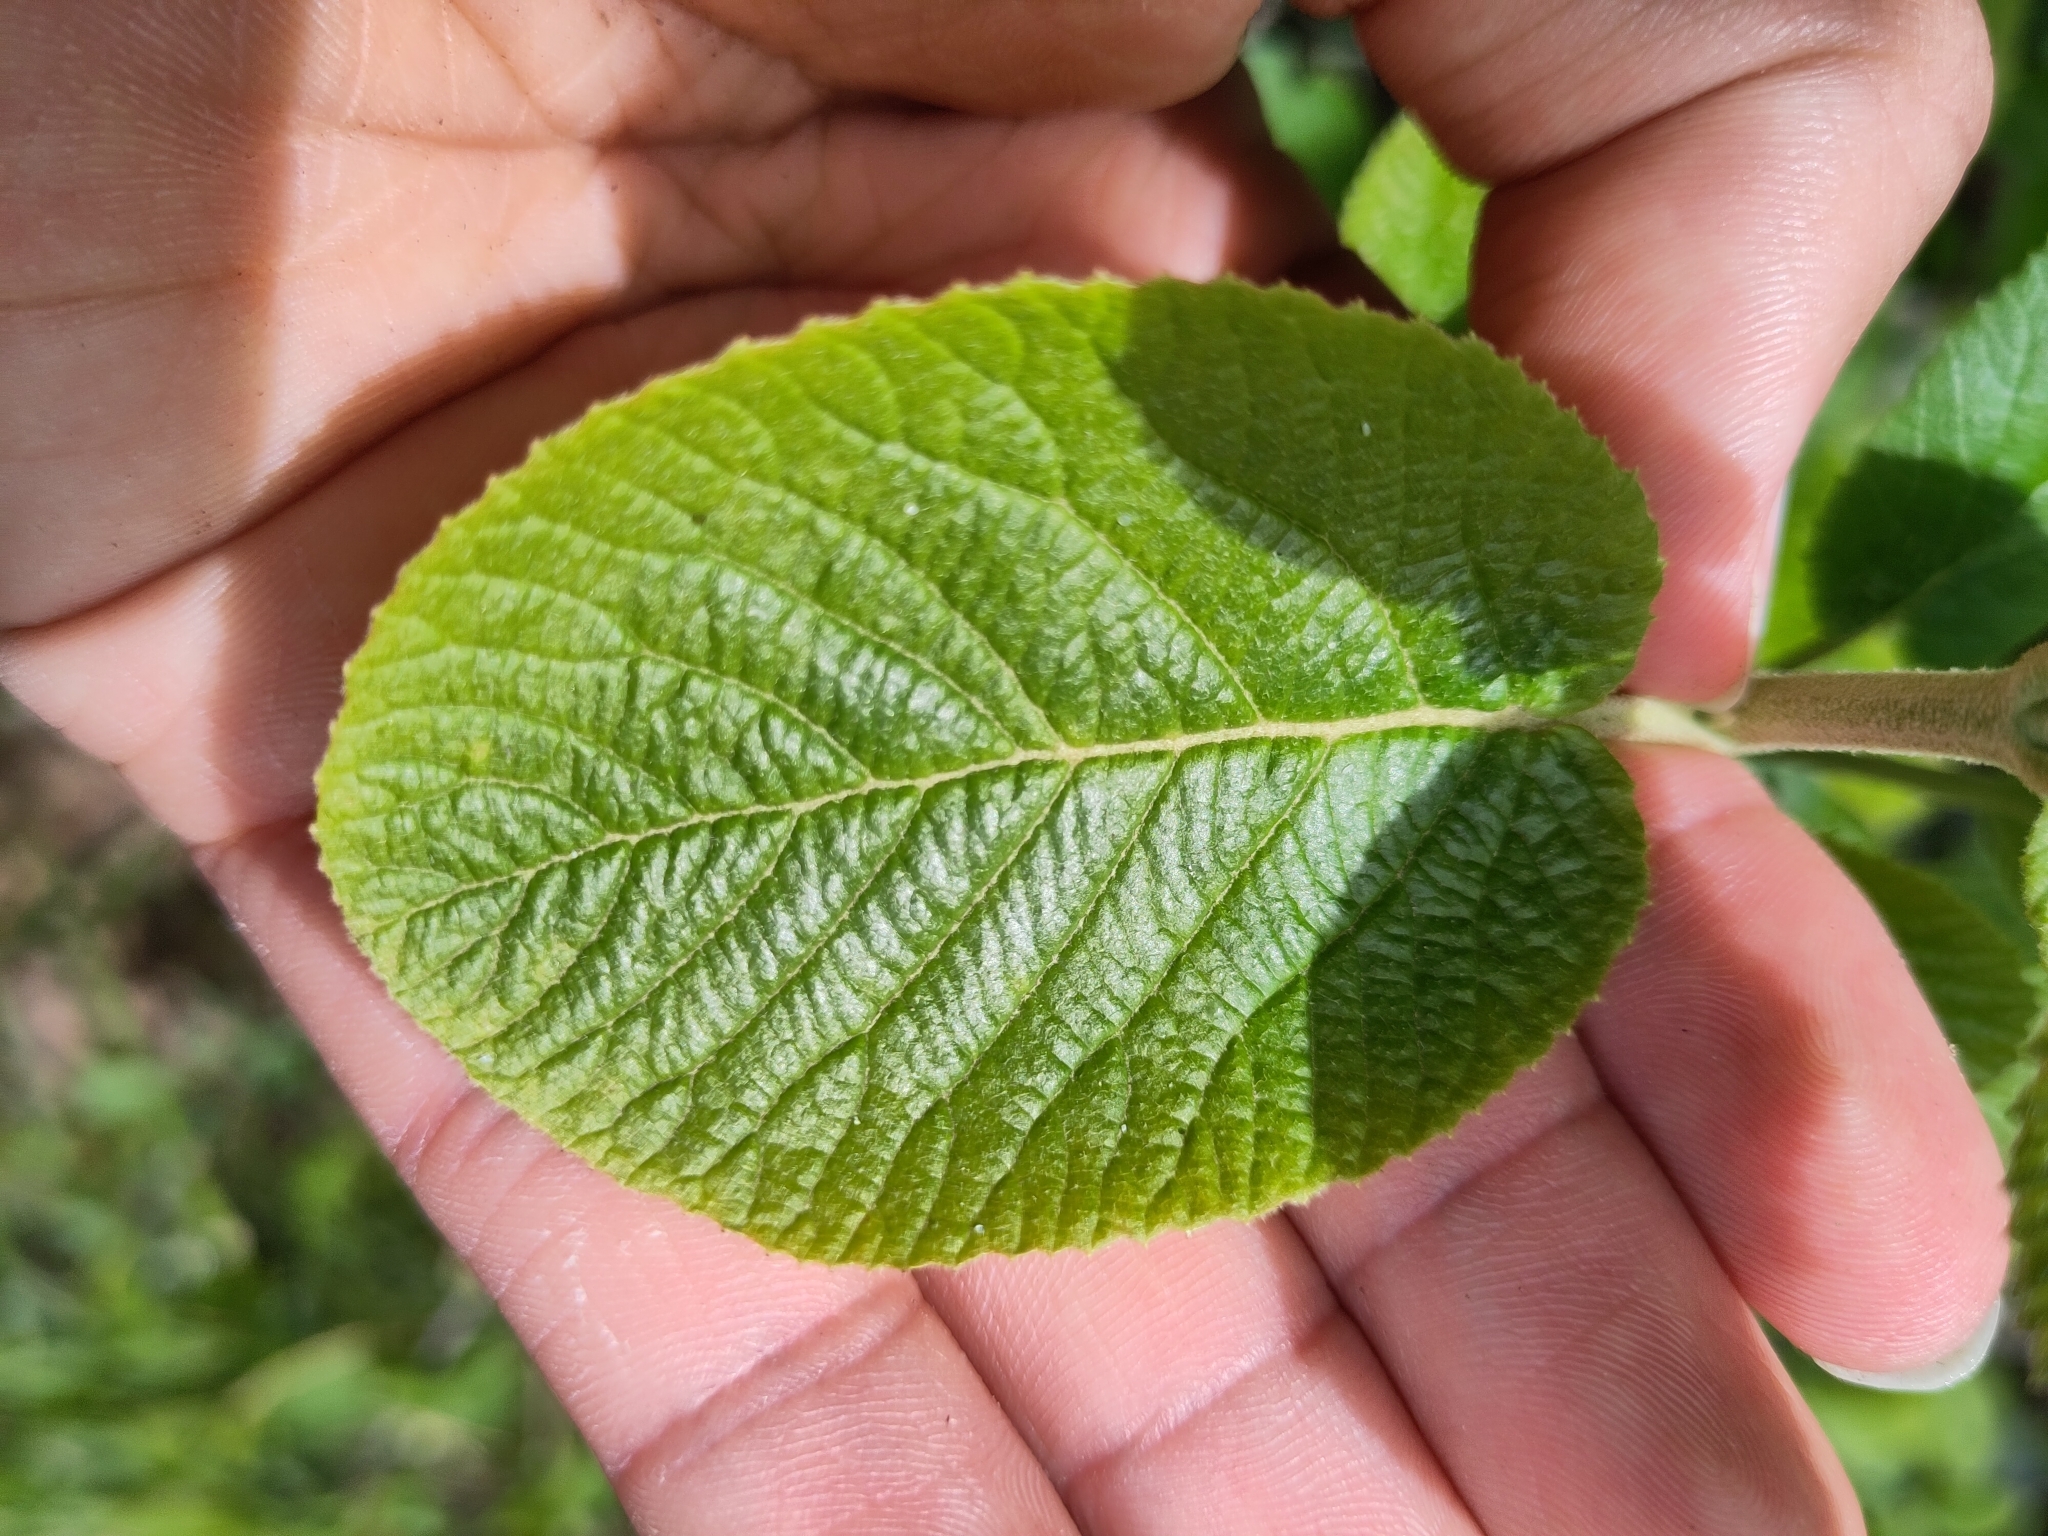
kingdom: Plantae
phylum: Tracheophyta
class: Magnoliopsida
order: Dipsacales
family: Viburnaceae
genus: Viburnum
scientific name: Viburnum lantana
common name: Wayfaring tree
